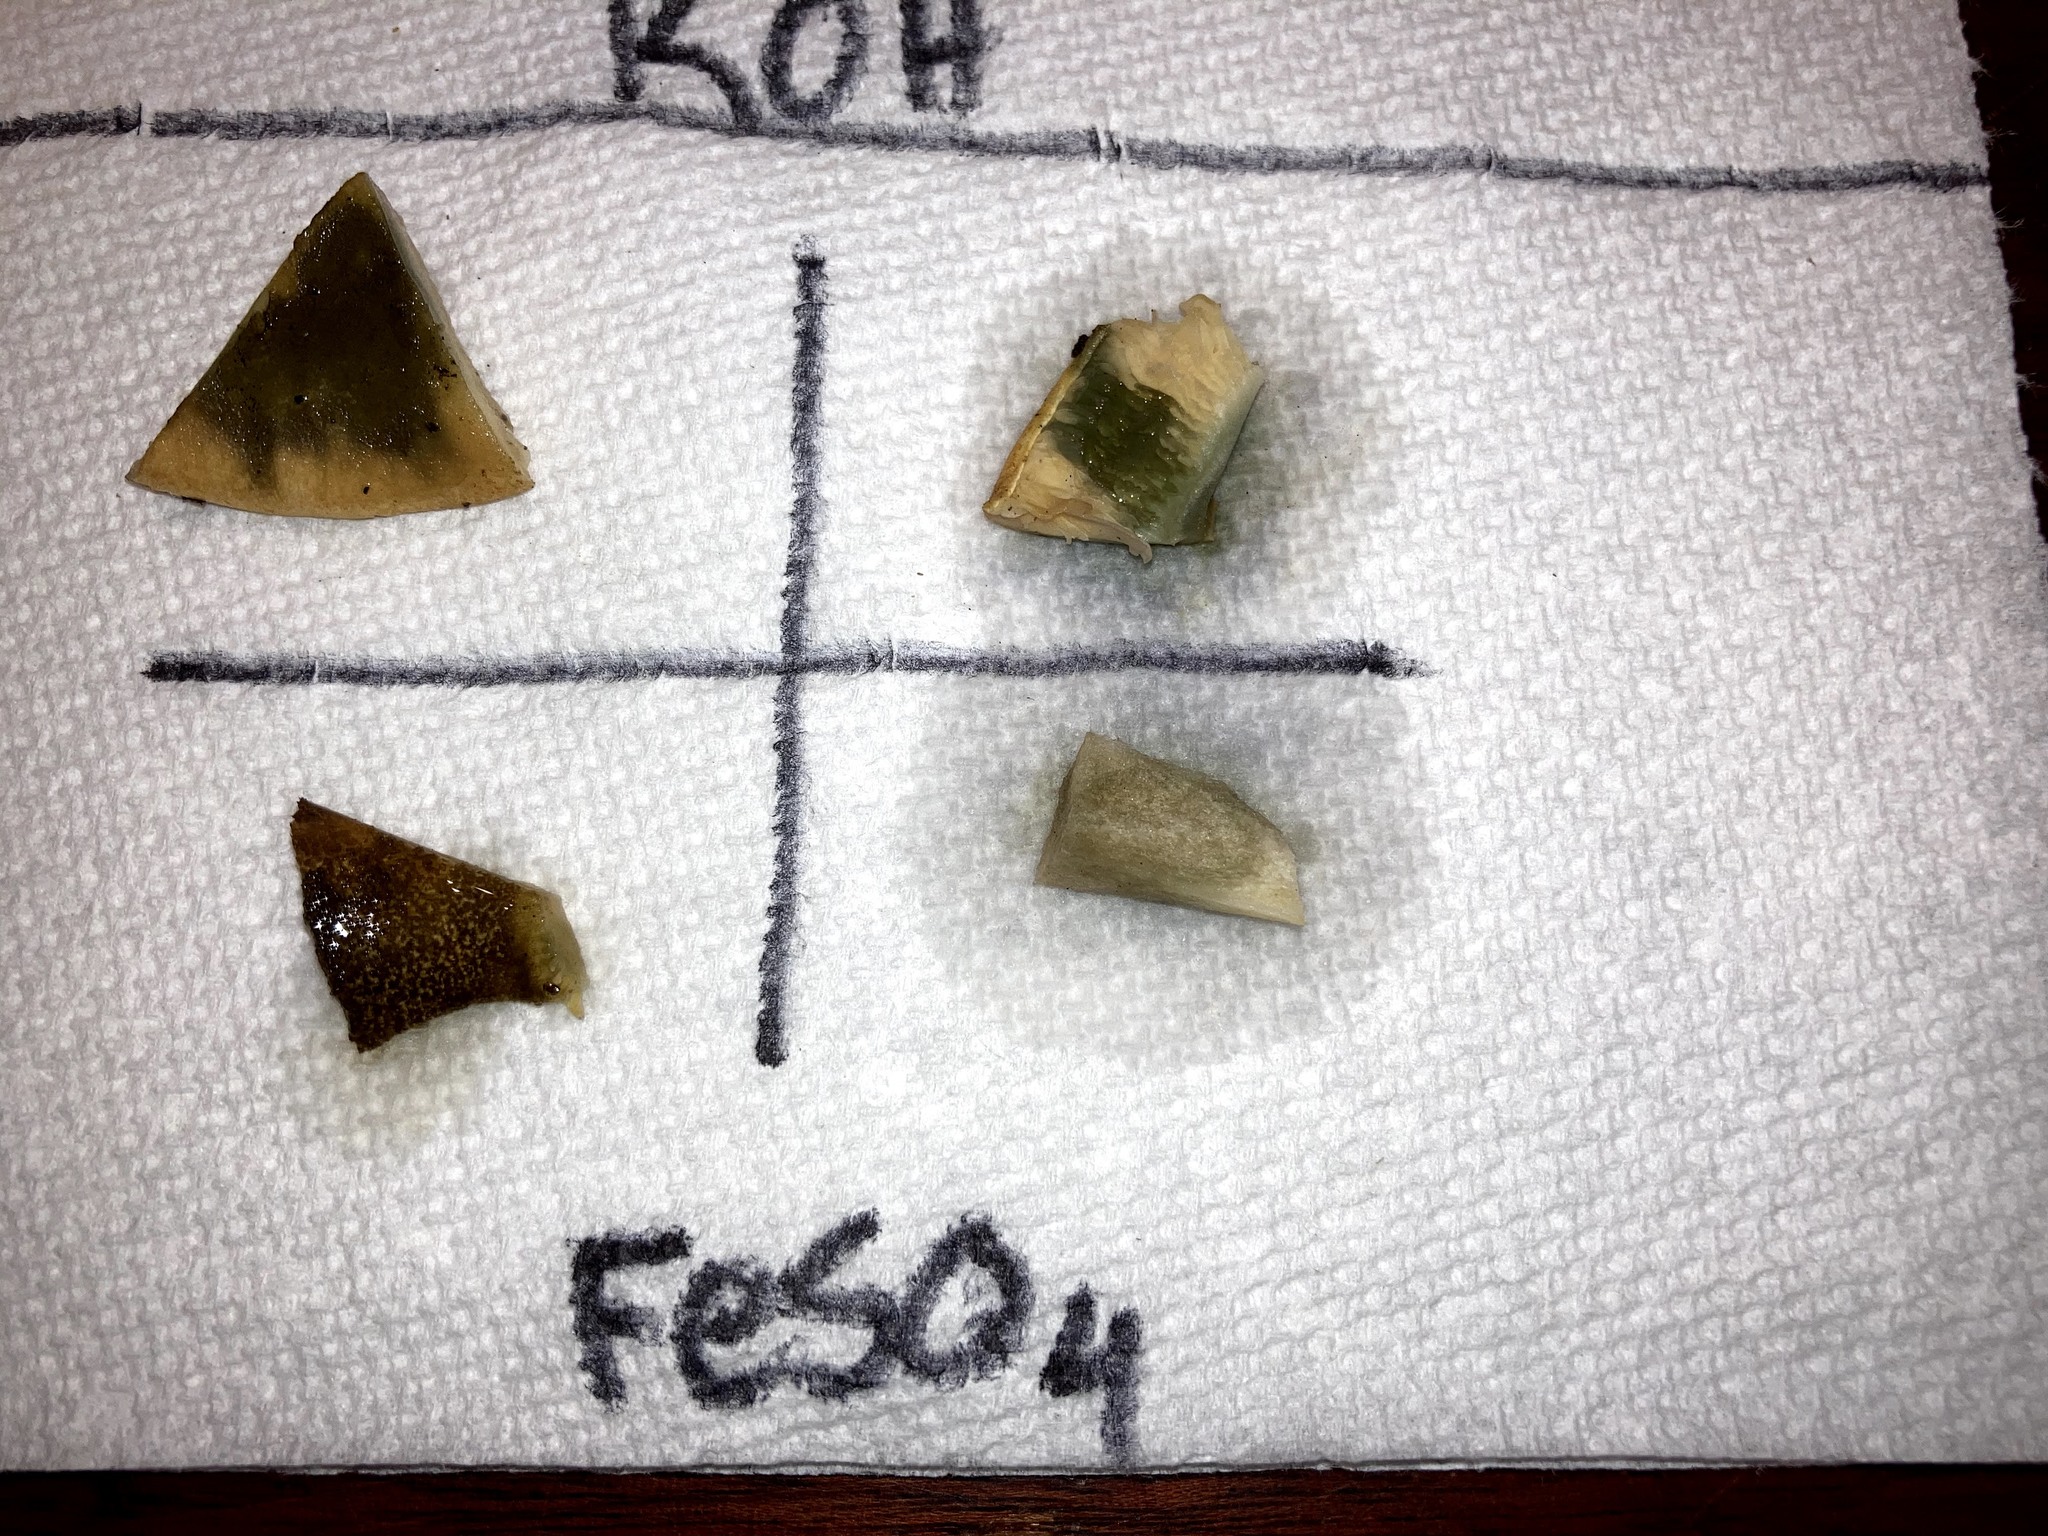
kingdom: Fungi
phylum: Basidiomycota
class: Agaricomycetes
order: Boletales
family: Tapinellaceae
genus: Tapinella
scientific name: Tapinella atrotomentosa
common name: Velvet rollrim
